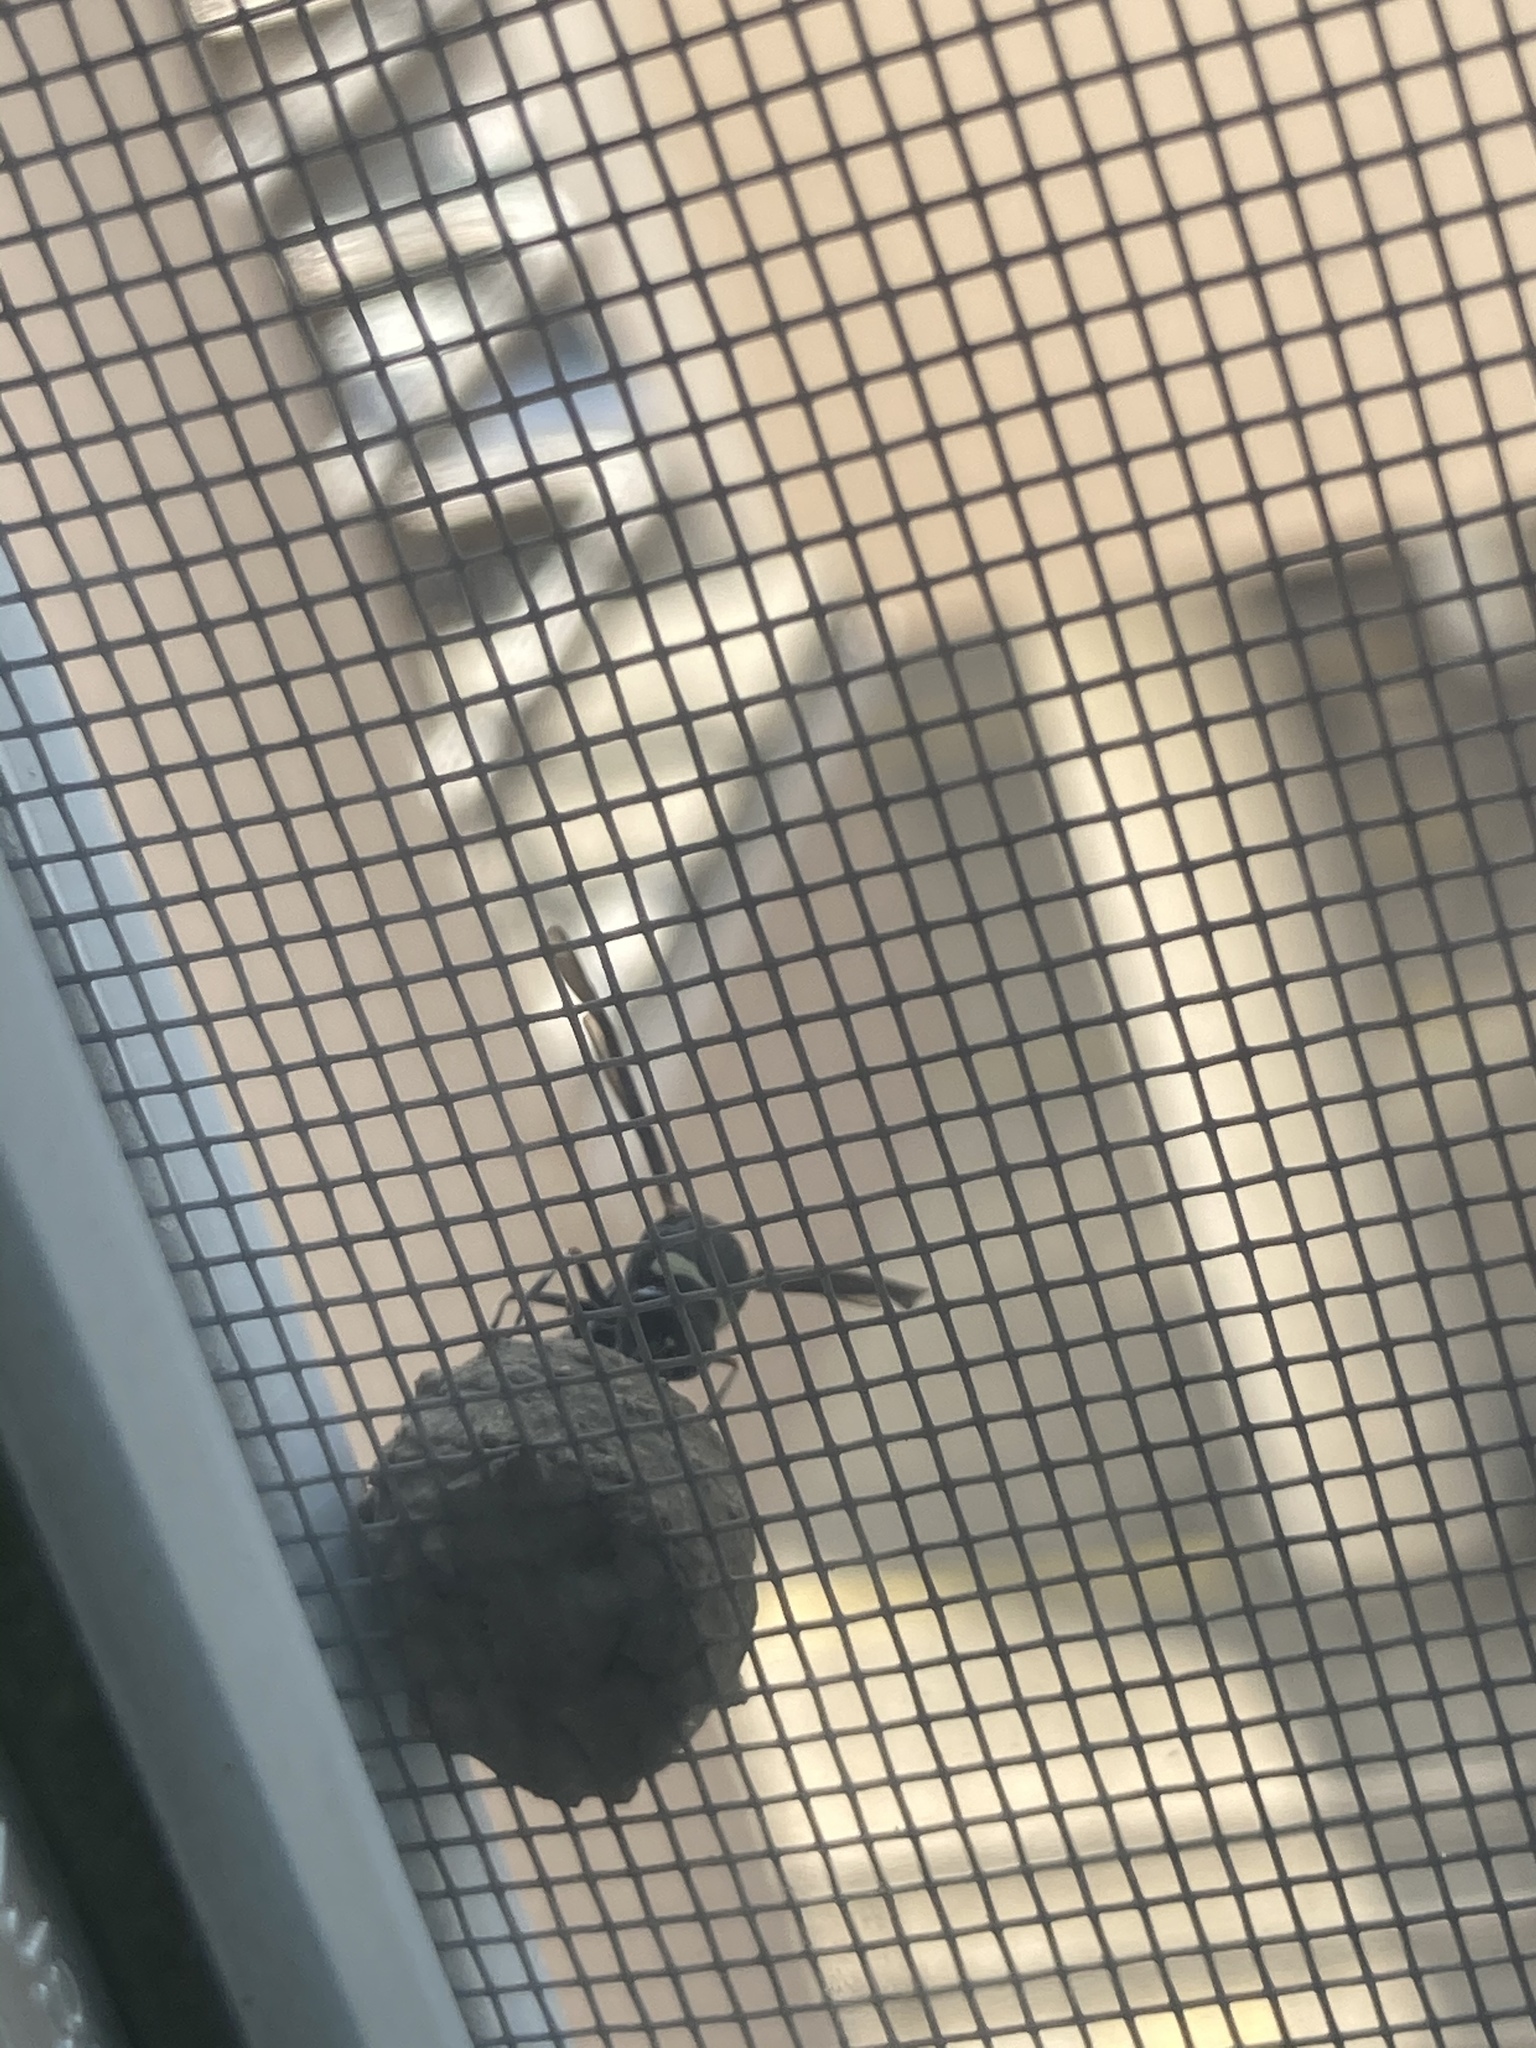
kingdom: Animalia
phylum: Arthropoda
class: Insecta
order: Hymenoptera
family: Vespidae
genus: Eumenes
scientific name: Eumenes fraternus
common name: Fraternal potter wasp
